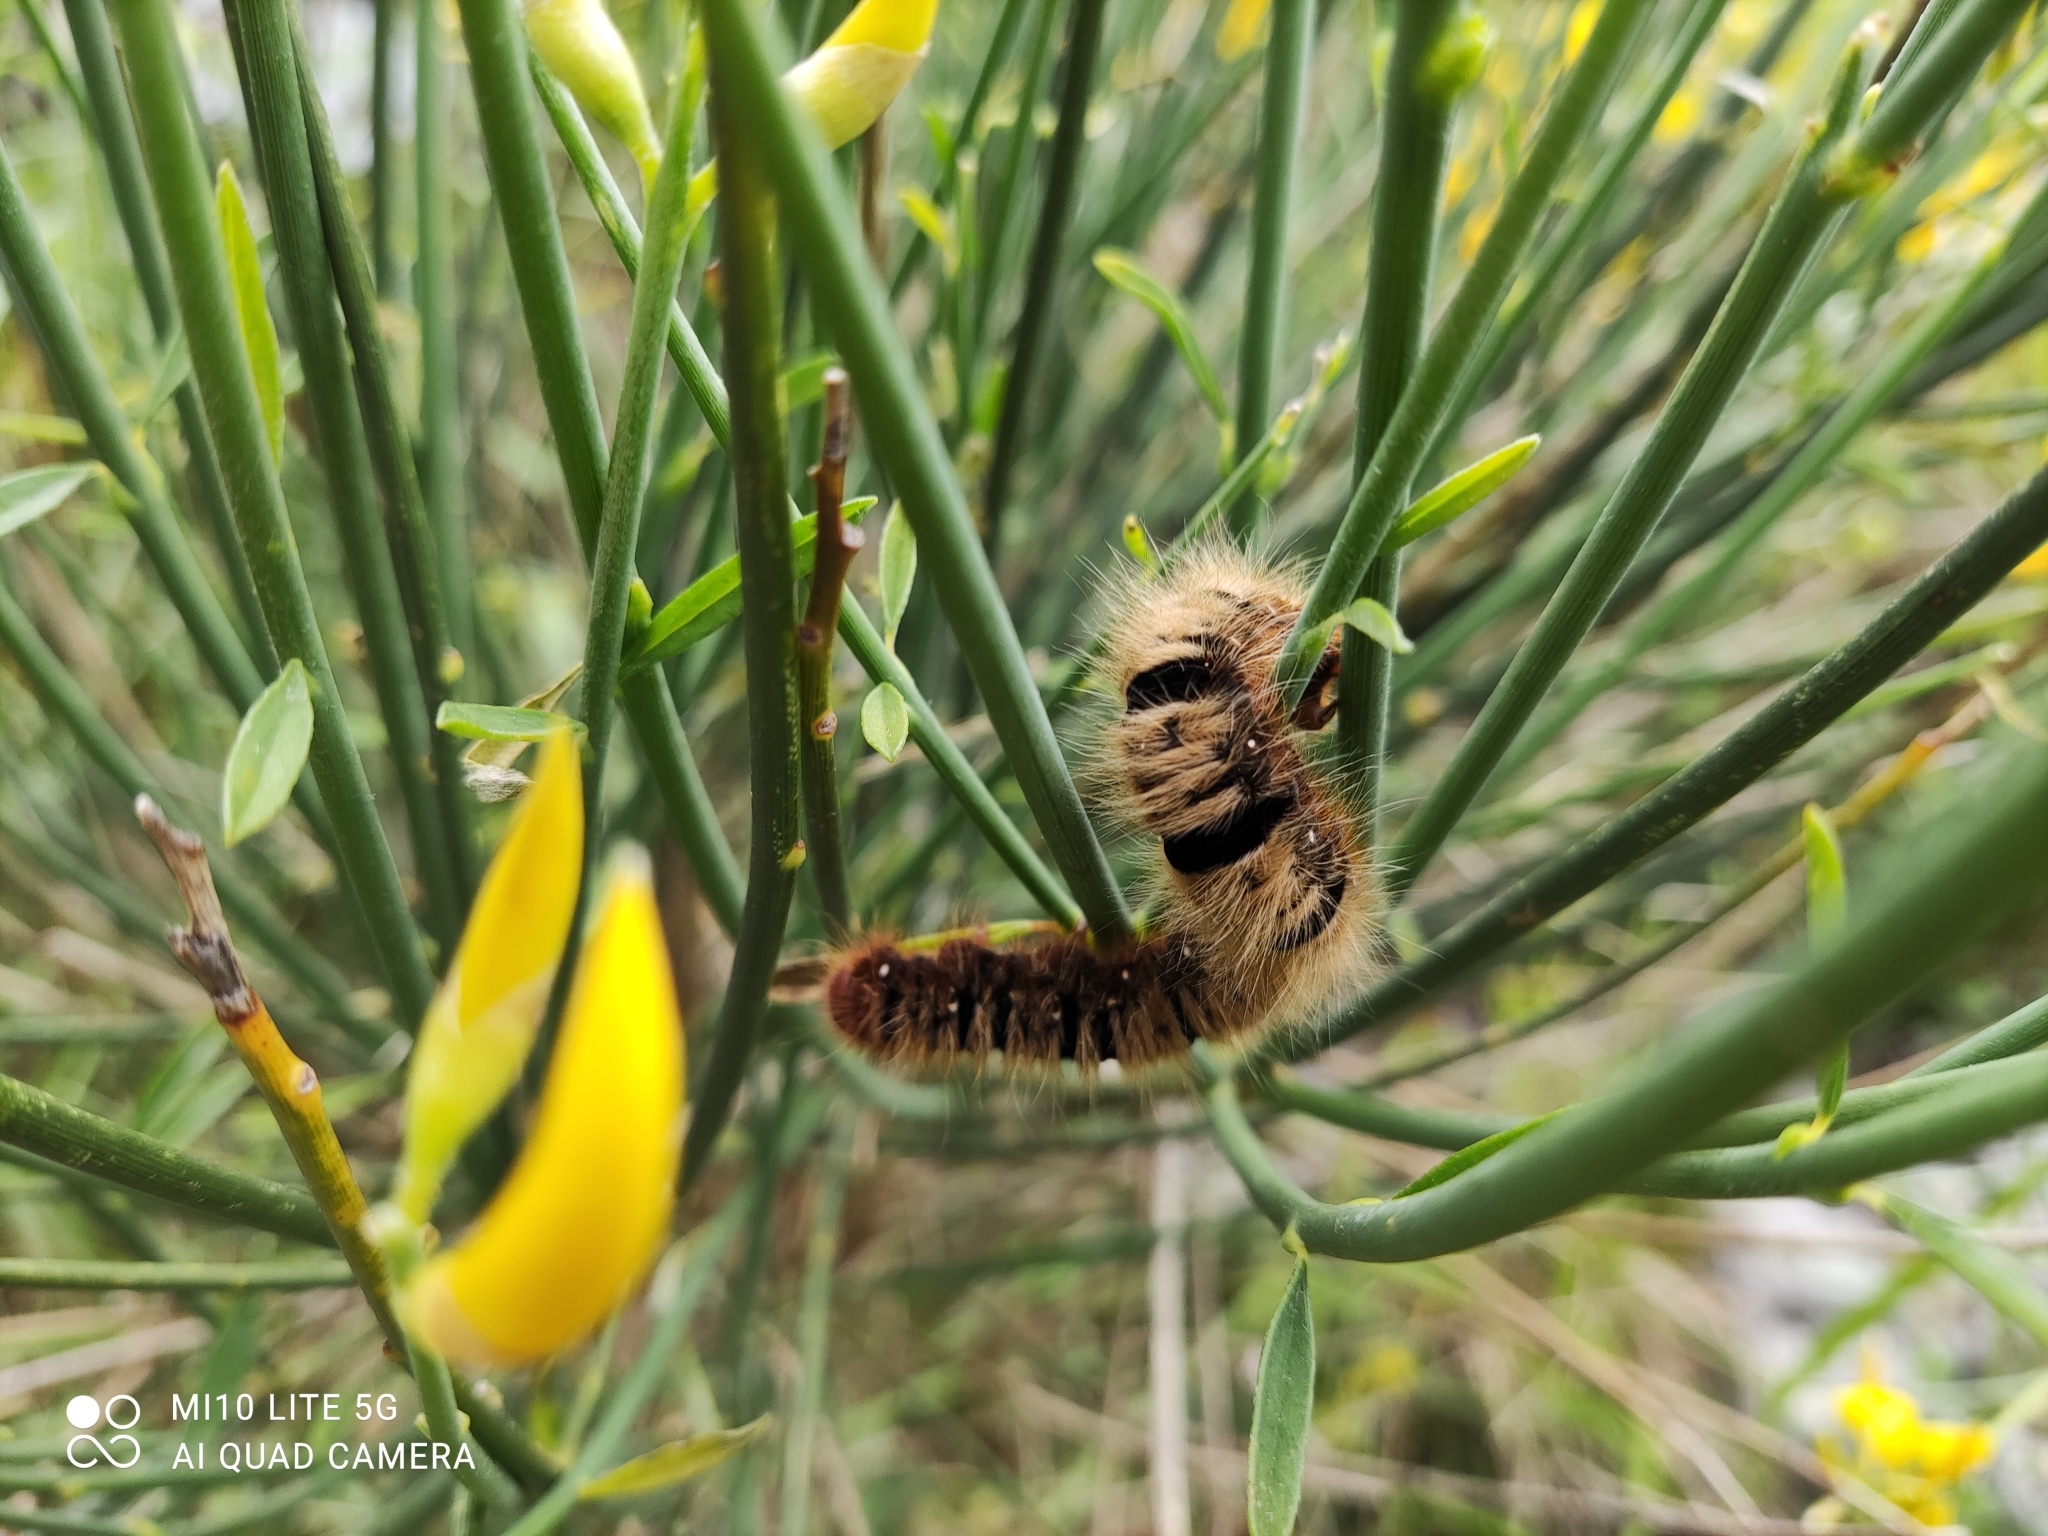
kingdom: Animalia
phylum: Arthropoda
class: Insecta
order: Lepidoptera
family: Lasiocampidae
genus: Lasiocampa
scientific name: Lasiocampa quercus
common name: Oak eggar
